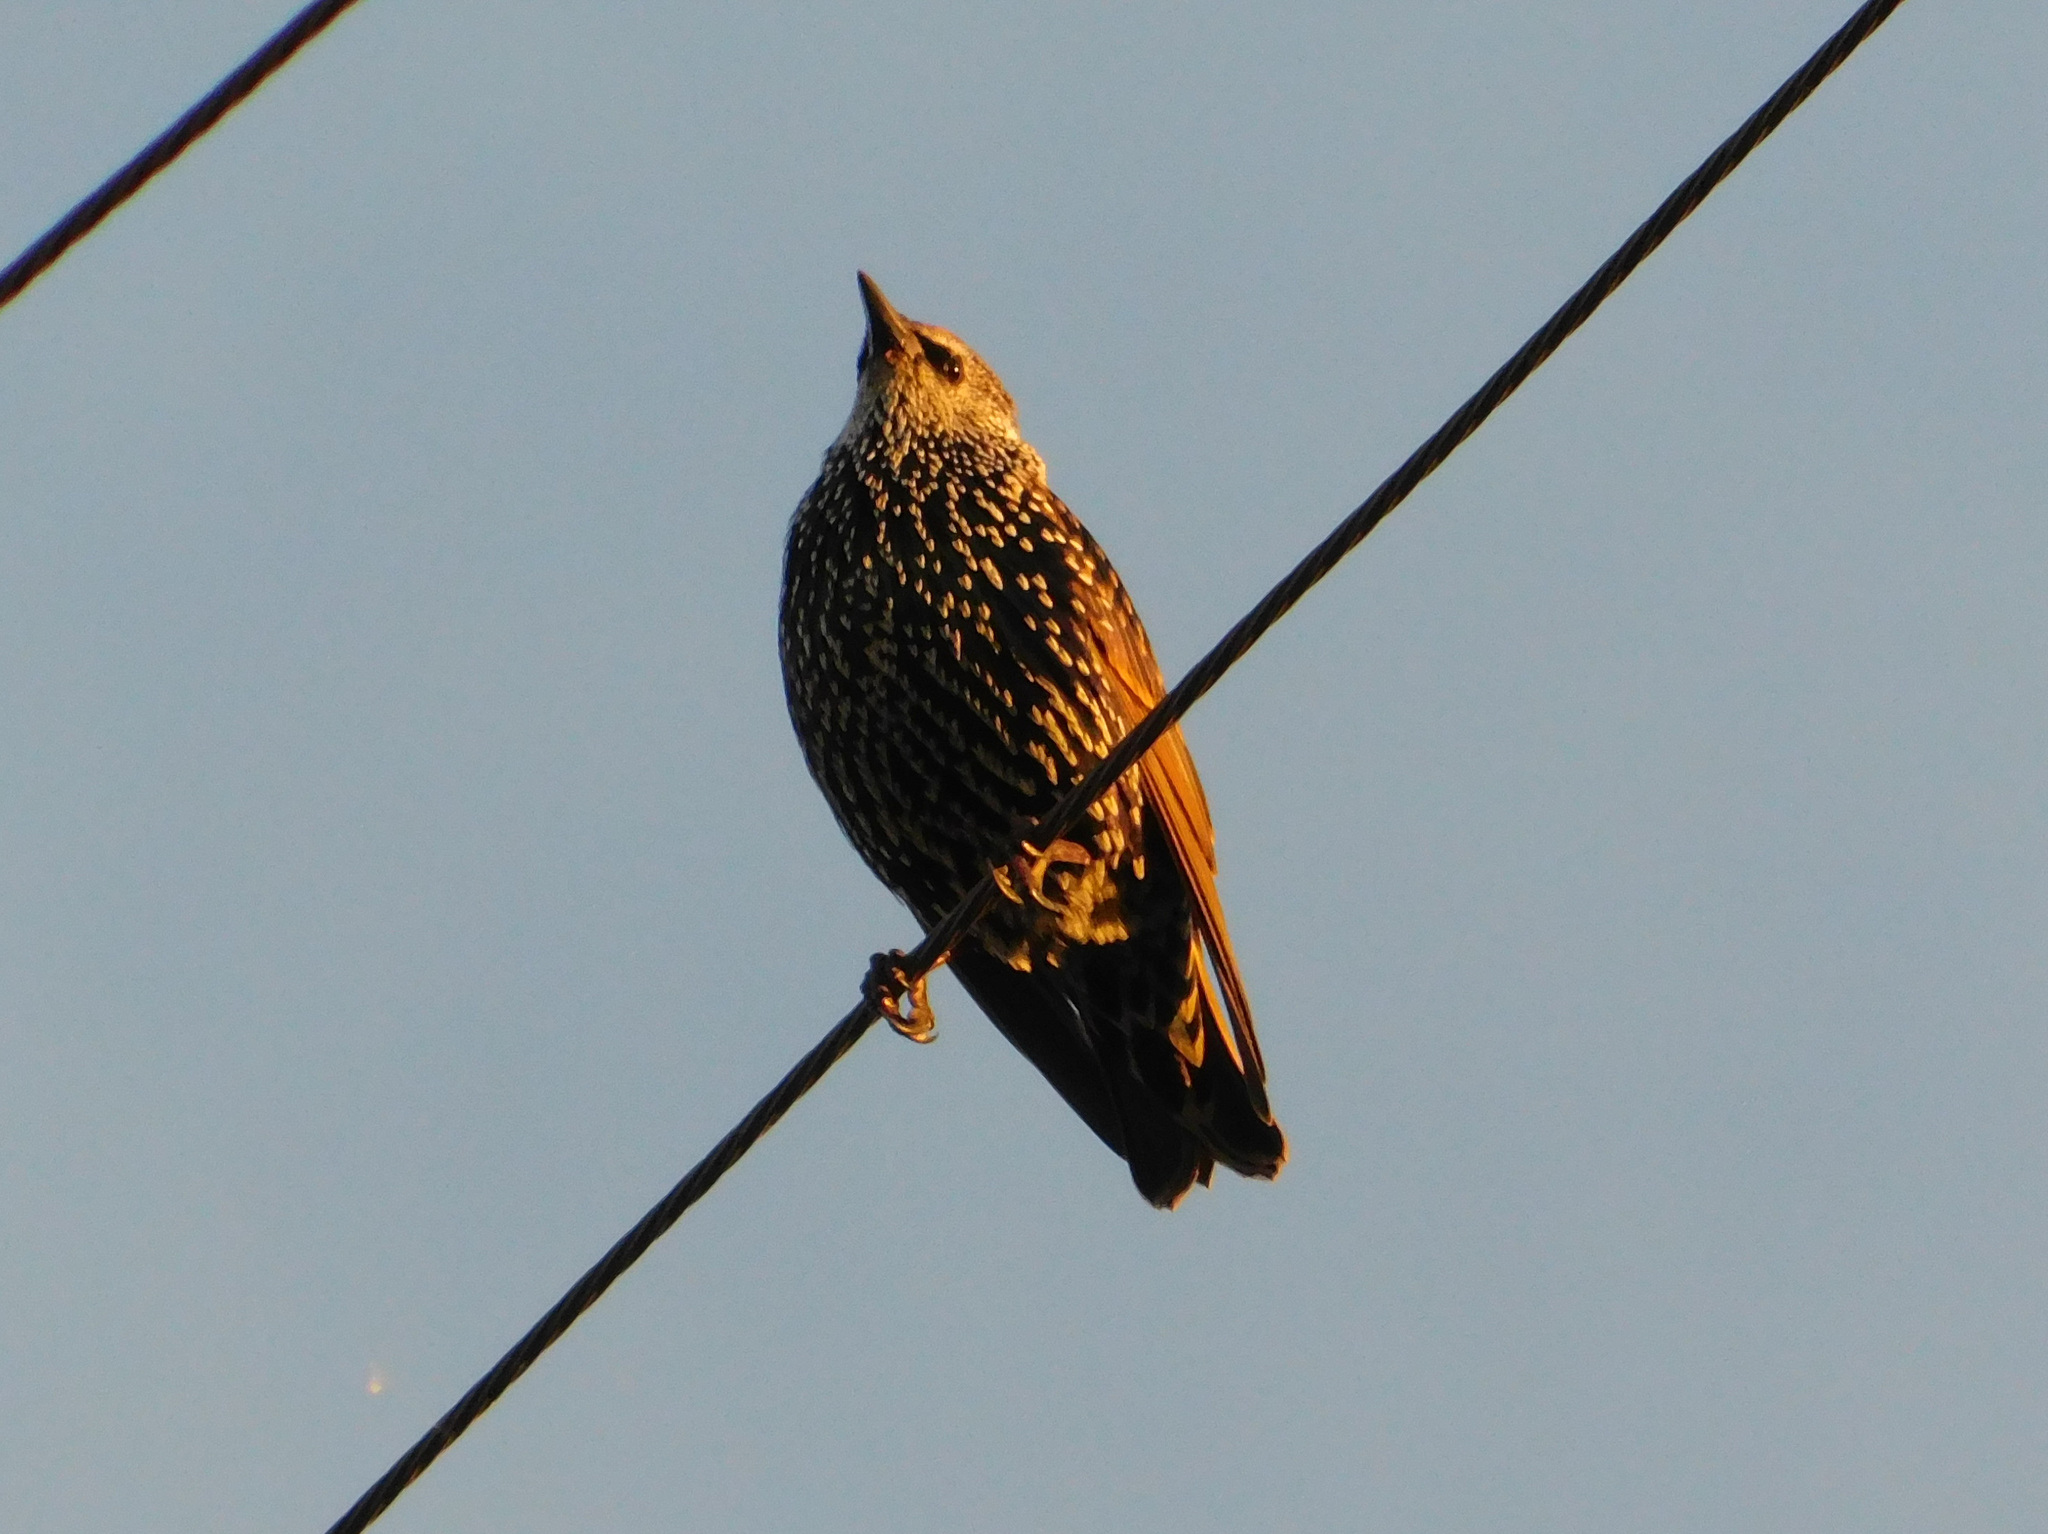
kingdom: Animalia
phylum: Chordata
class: Aves
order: Passeriformes
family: Sturnidae
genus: Sturnus
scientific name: Sturnus vulgaris
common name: Common starling
